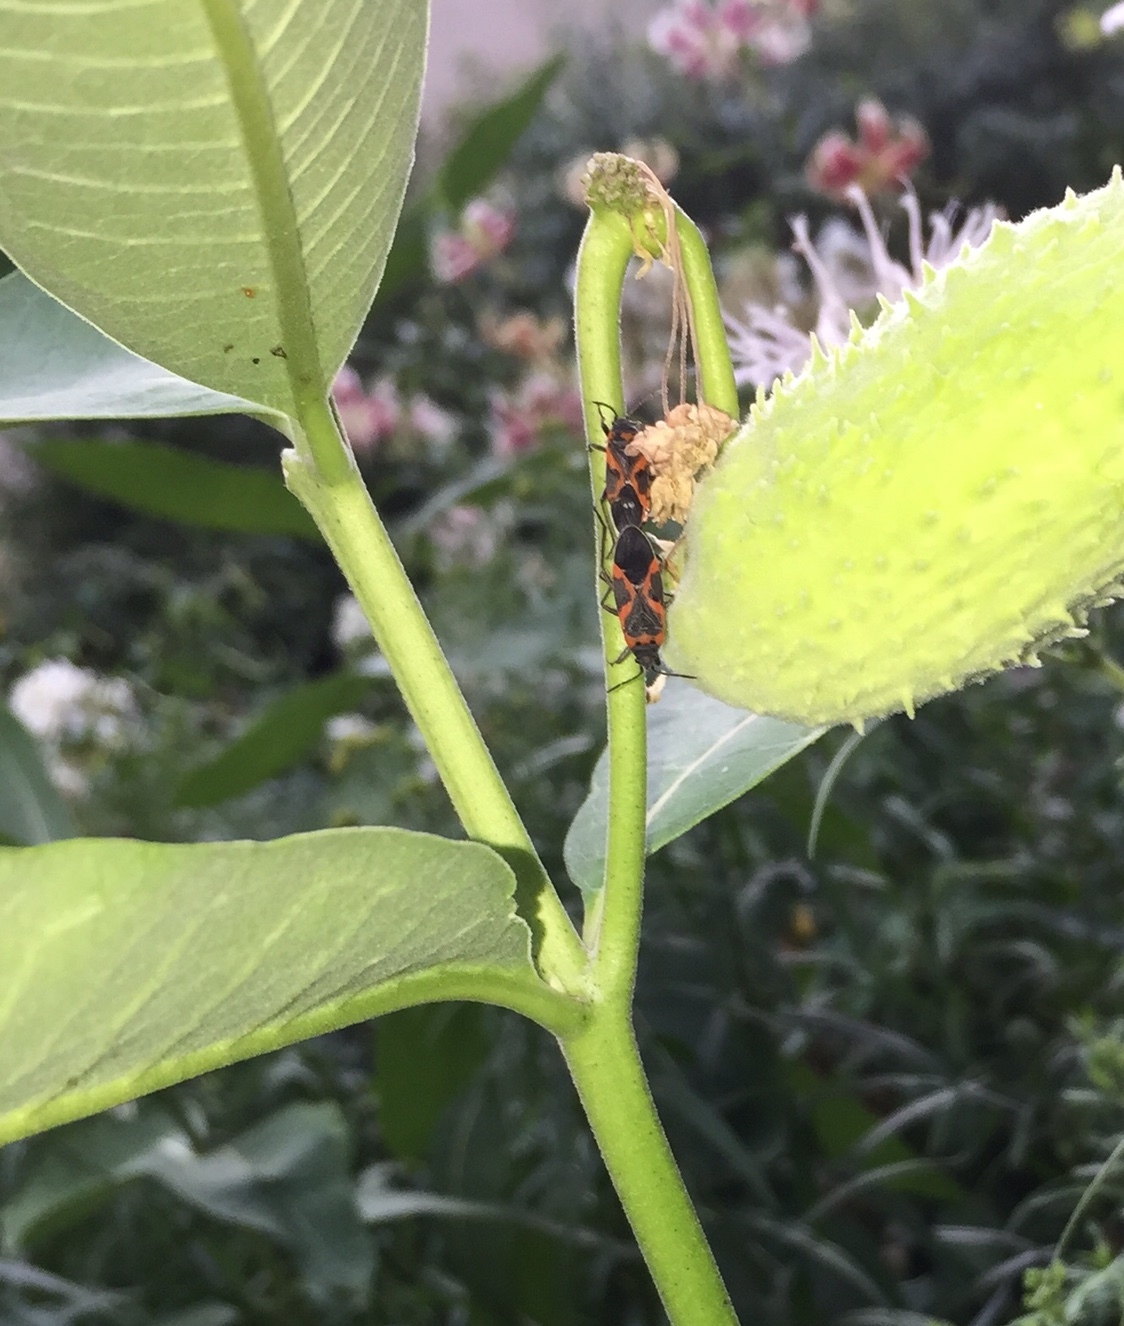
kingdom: Animalia
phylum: Arthropoda
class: Insecta
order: Hemiptera
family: Lygaeidae
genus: Lygaeus
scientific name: Lygaeus kalmii
